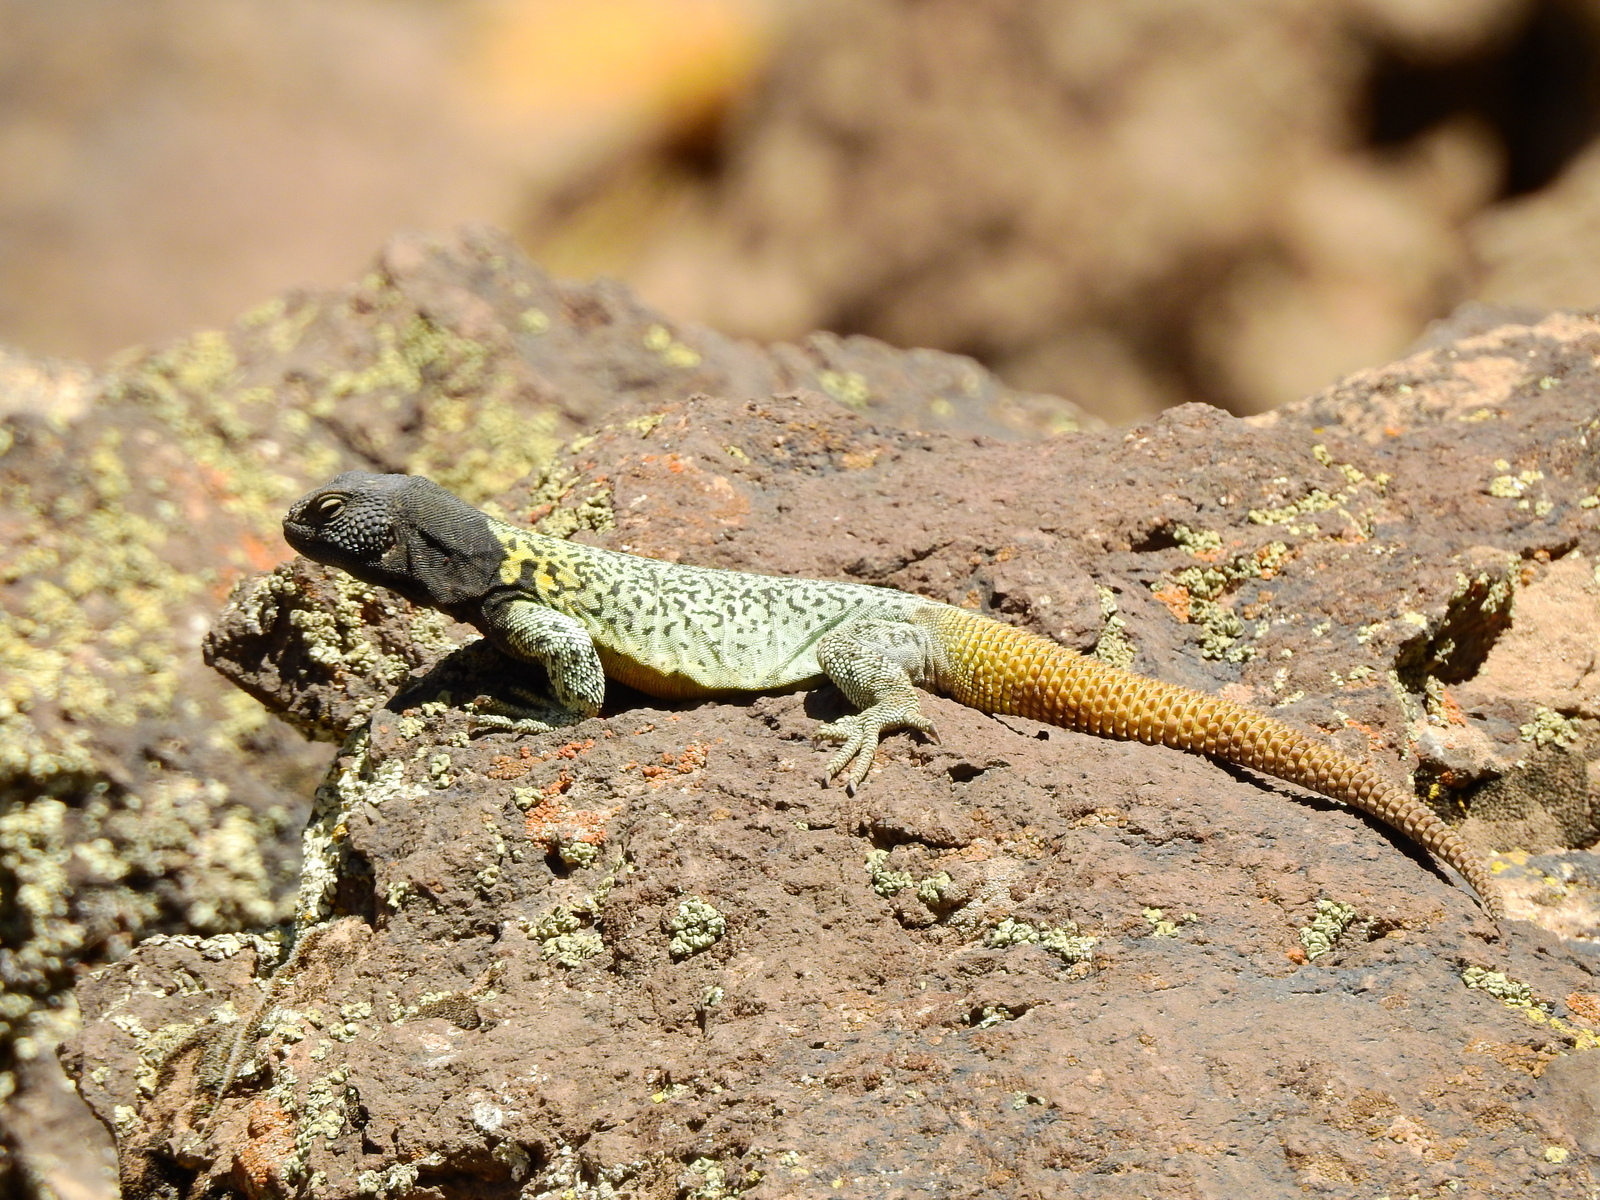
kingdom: Animalia
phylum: Chordata
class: Squamata
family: Liolaemidae
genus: Phymaturus
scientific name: Phymaturus verdugo
